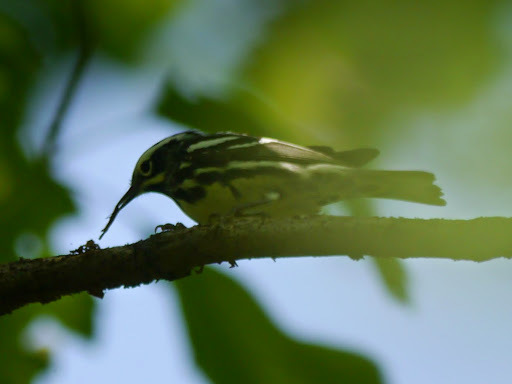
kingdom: Animalia
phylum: Chordata
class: Aves
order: Passeriformes
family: Parulidae
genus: Mniotilta
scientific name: Mniotilta varia
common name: Black-and-white warbler
